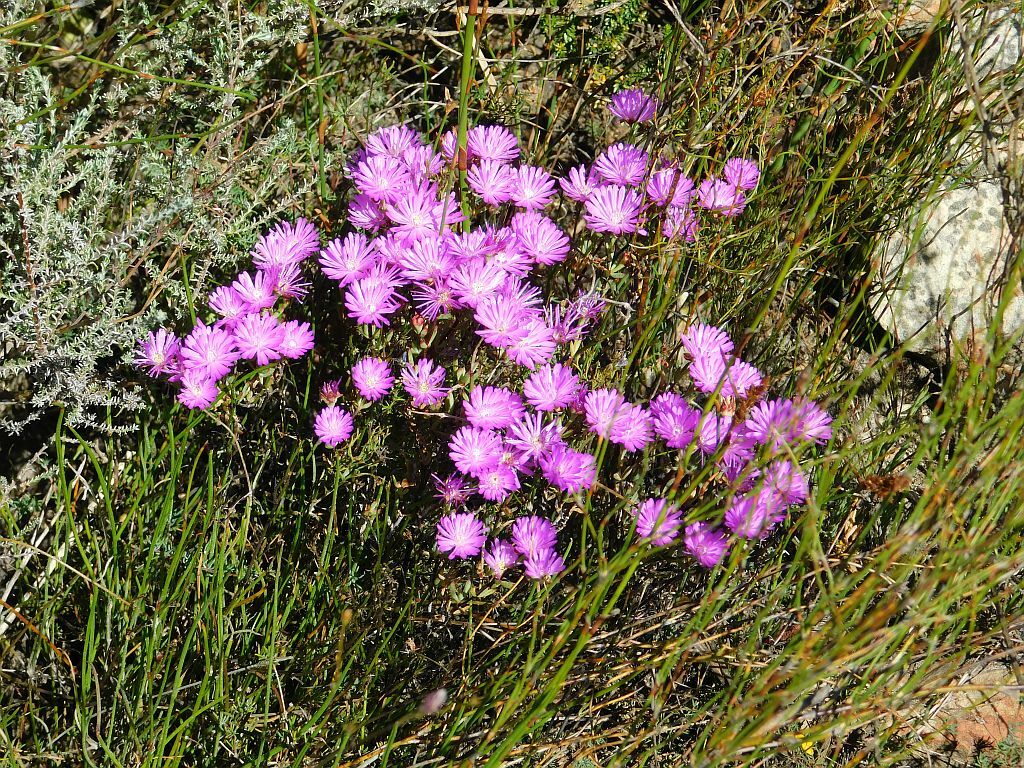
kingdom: Plantae
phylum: Tracheophyta
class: Magnoliopsida
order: Caryophyllales
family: Aizoaceae
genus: Lampranthus
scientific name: Lampranthus falcatus
